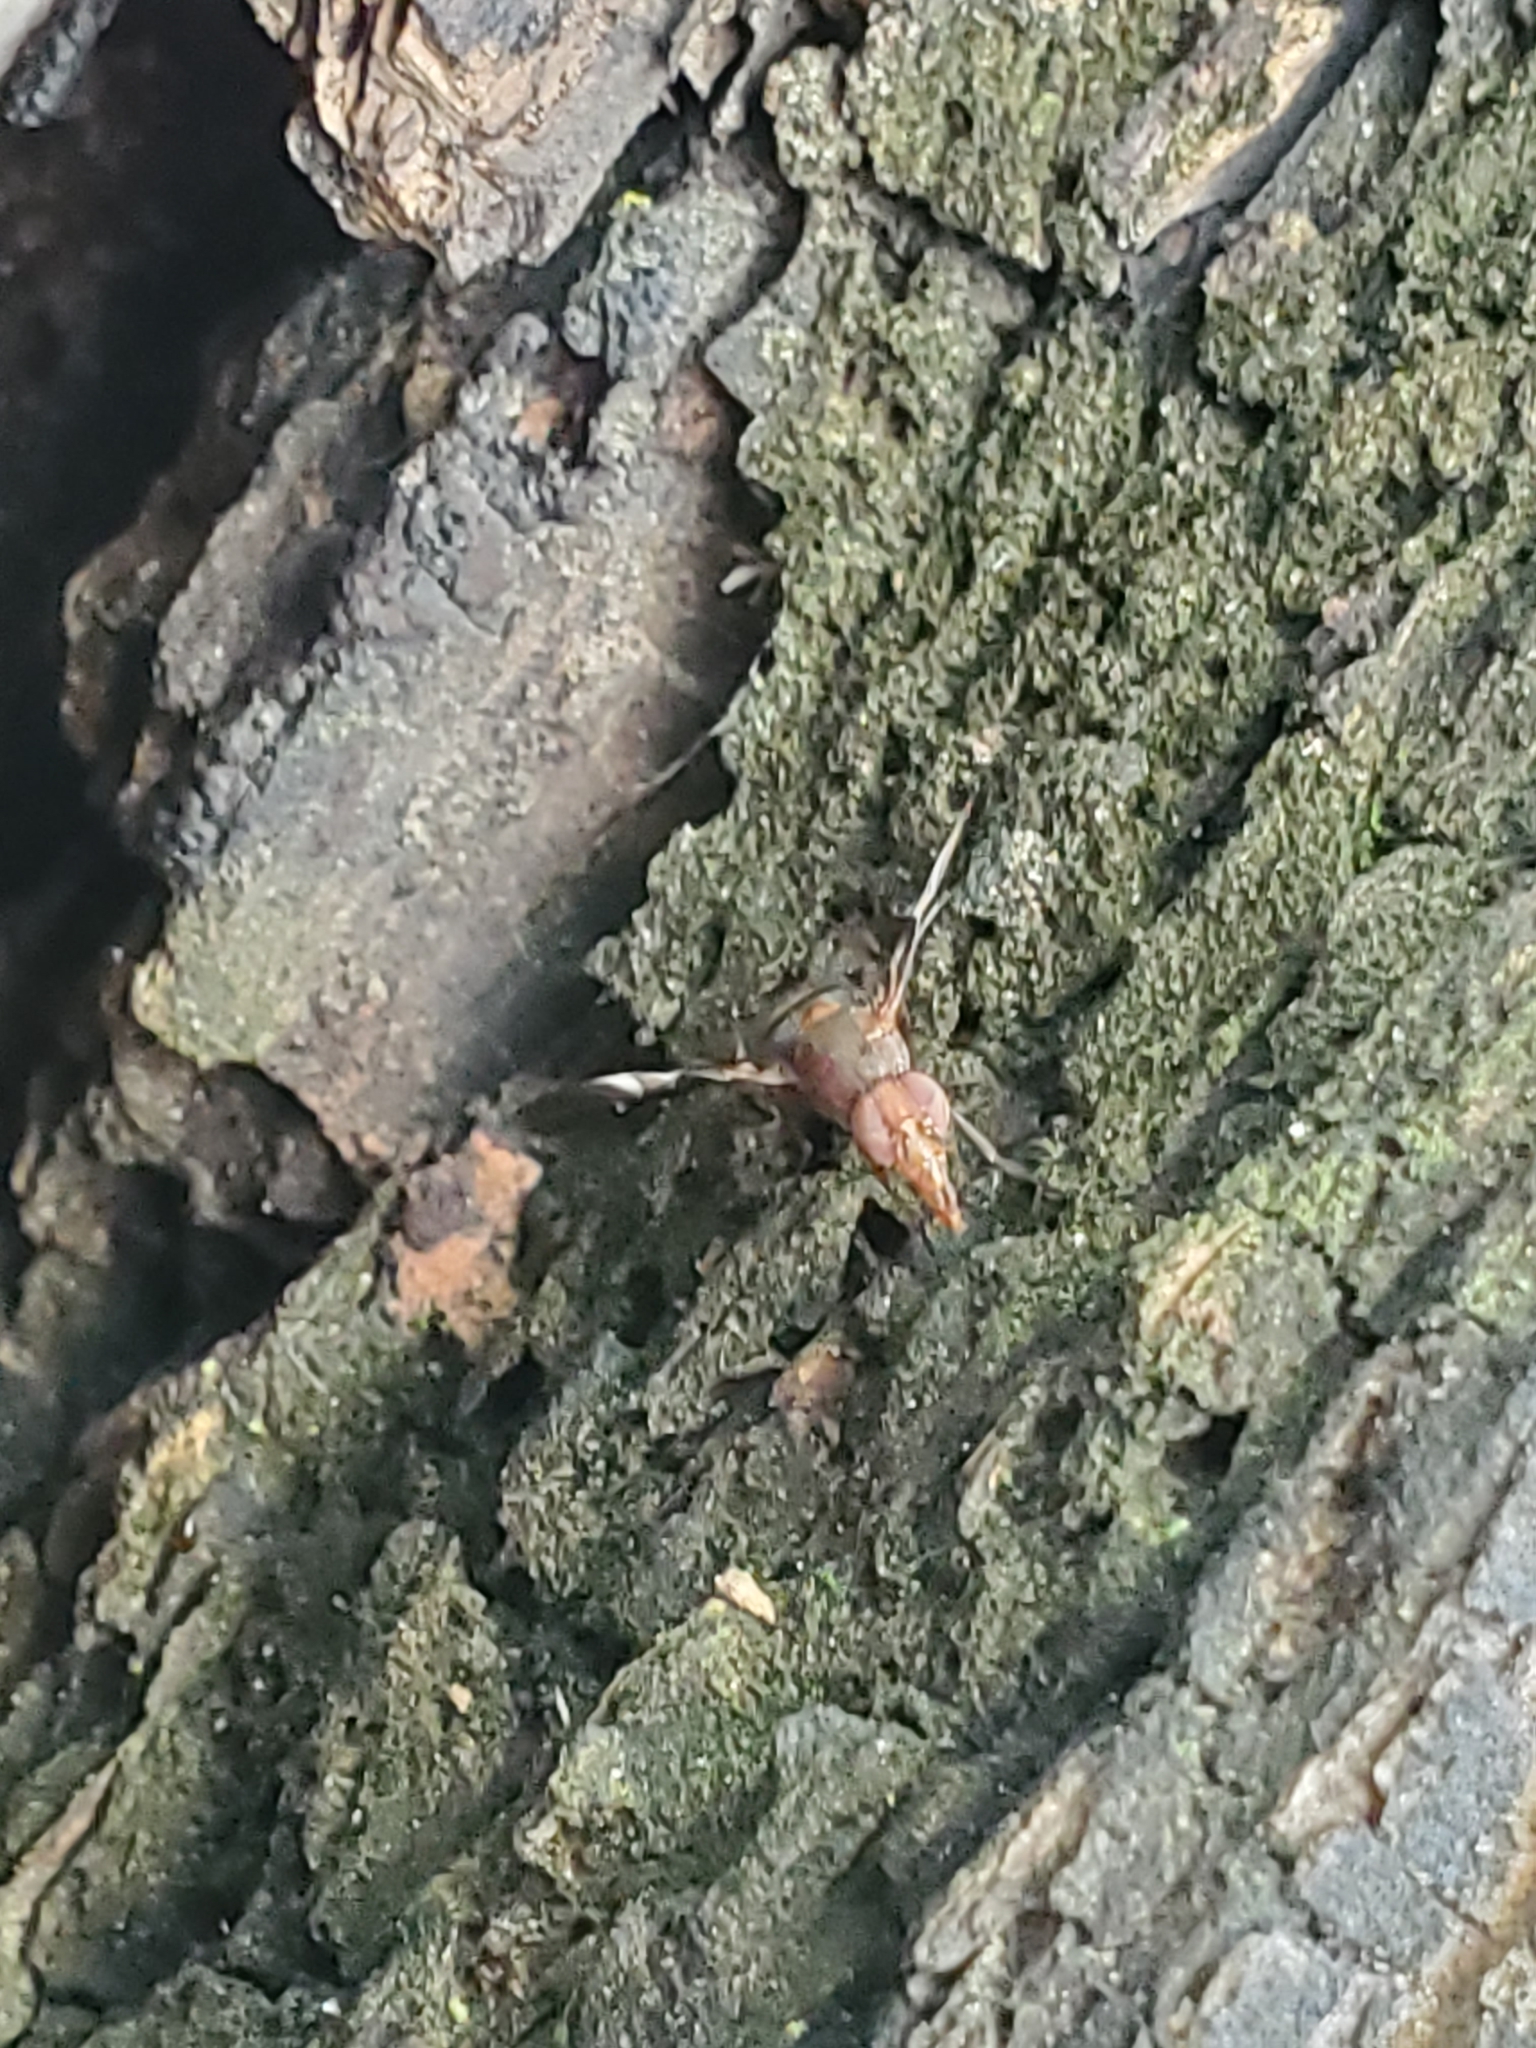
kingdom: Animalia
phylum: Arthropoda
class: Insecta
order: Diptera
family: Ulidiidae
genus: Delphinia
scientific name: Delphinia picta
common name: Common picture-winged fly
